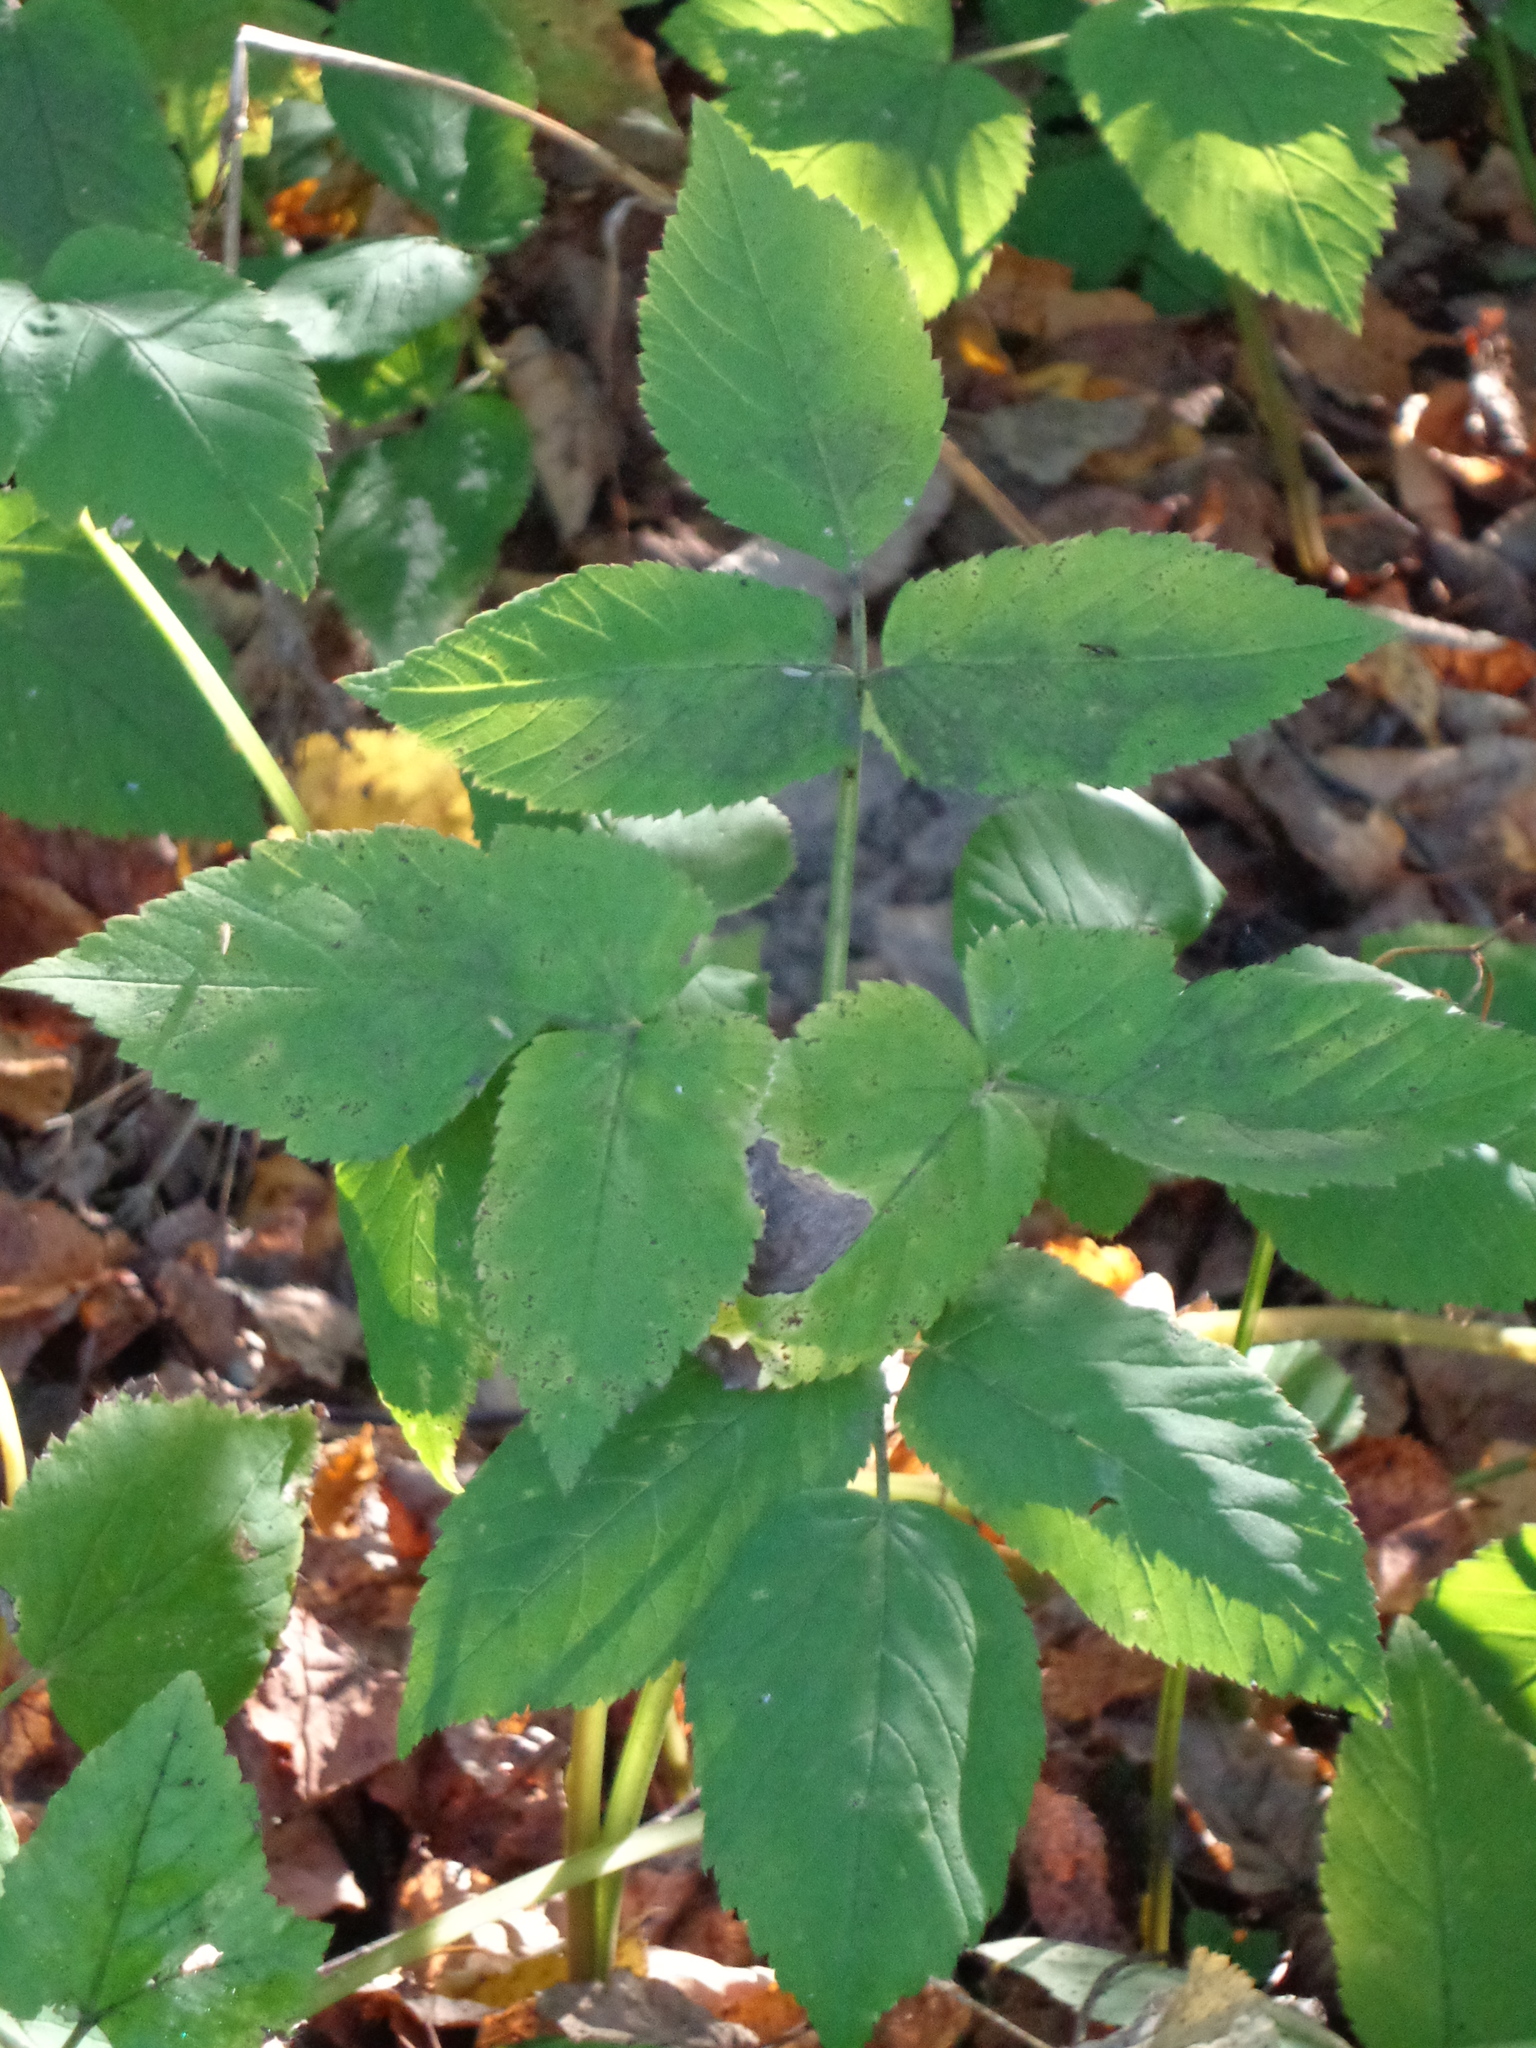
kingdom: Plantae
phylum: Tracheophyta
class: Magnoliopsida
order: Apiales
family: Apiaceae
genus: Aegopodium
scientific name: Aegopodium podagraria
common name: Ground-elder
